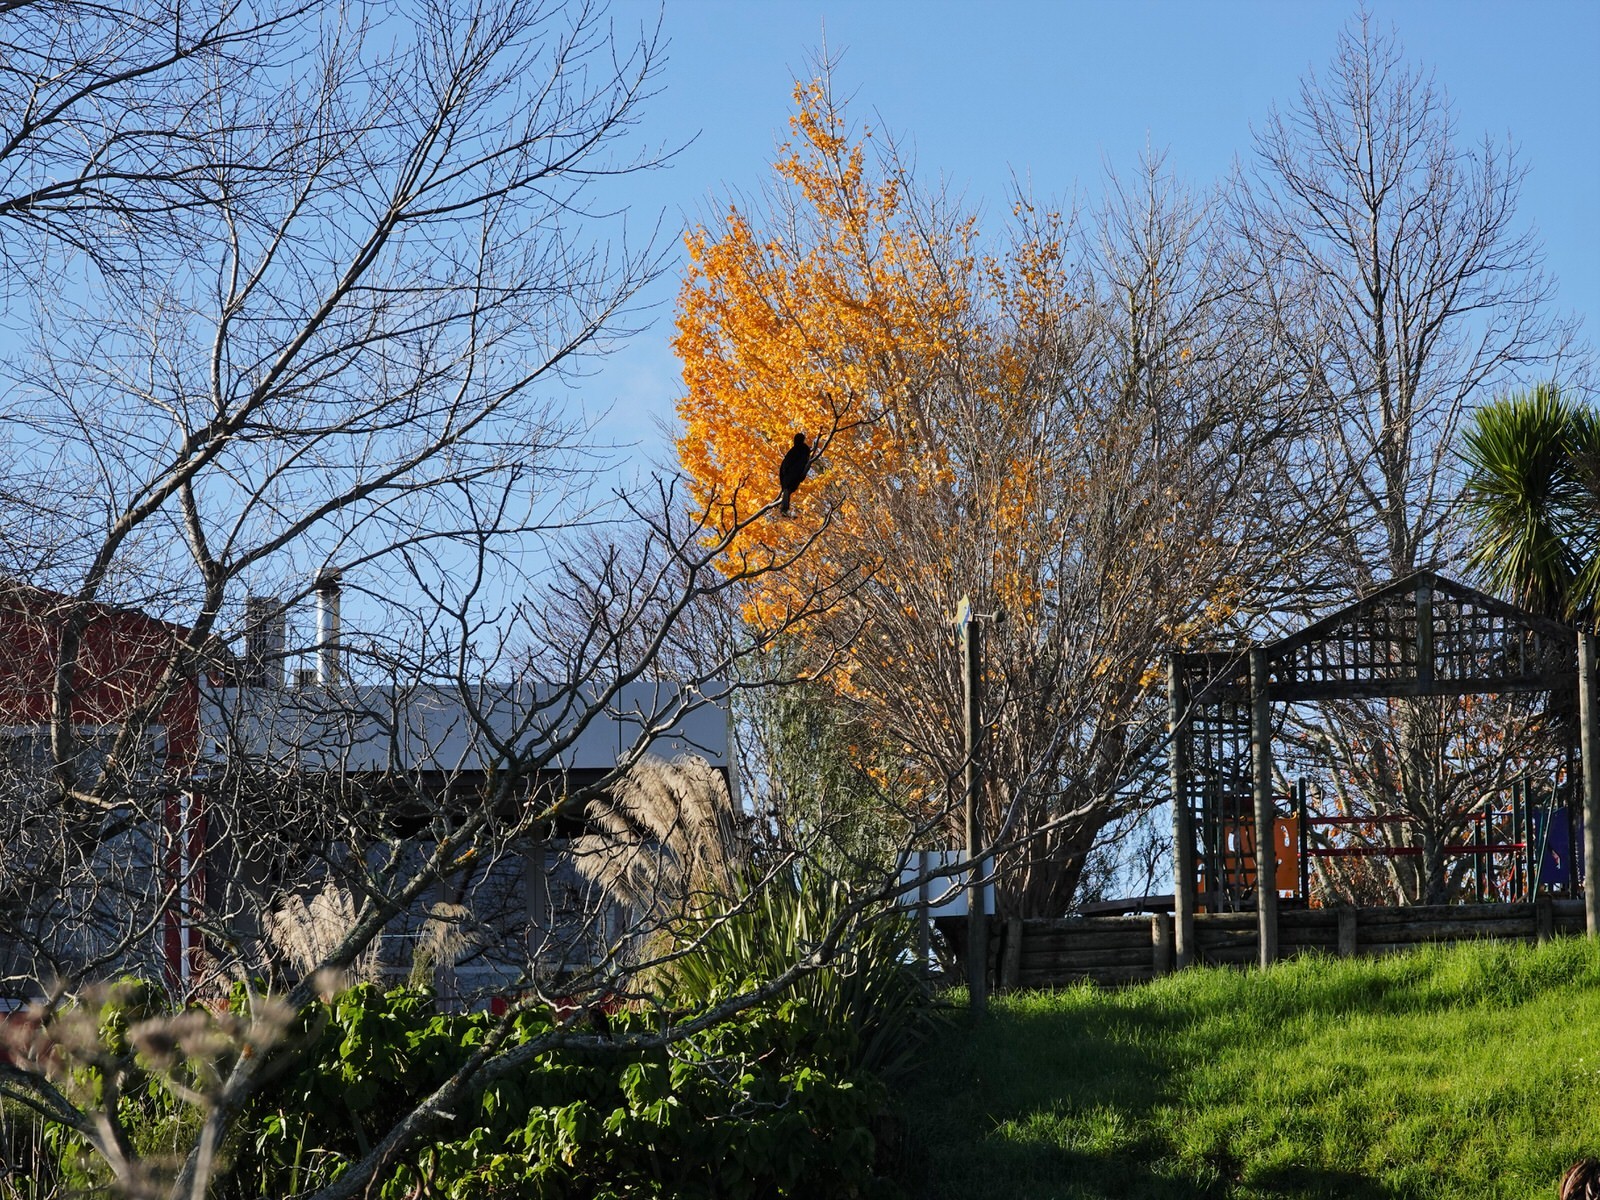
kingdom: Animalia
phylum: Chordata
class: Aves
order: Suliformes
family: Phalacrocoracidae
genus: Microcarbo
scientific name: Microcarbo melanoleucos
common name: Little pied cormorant
